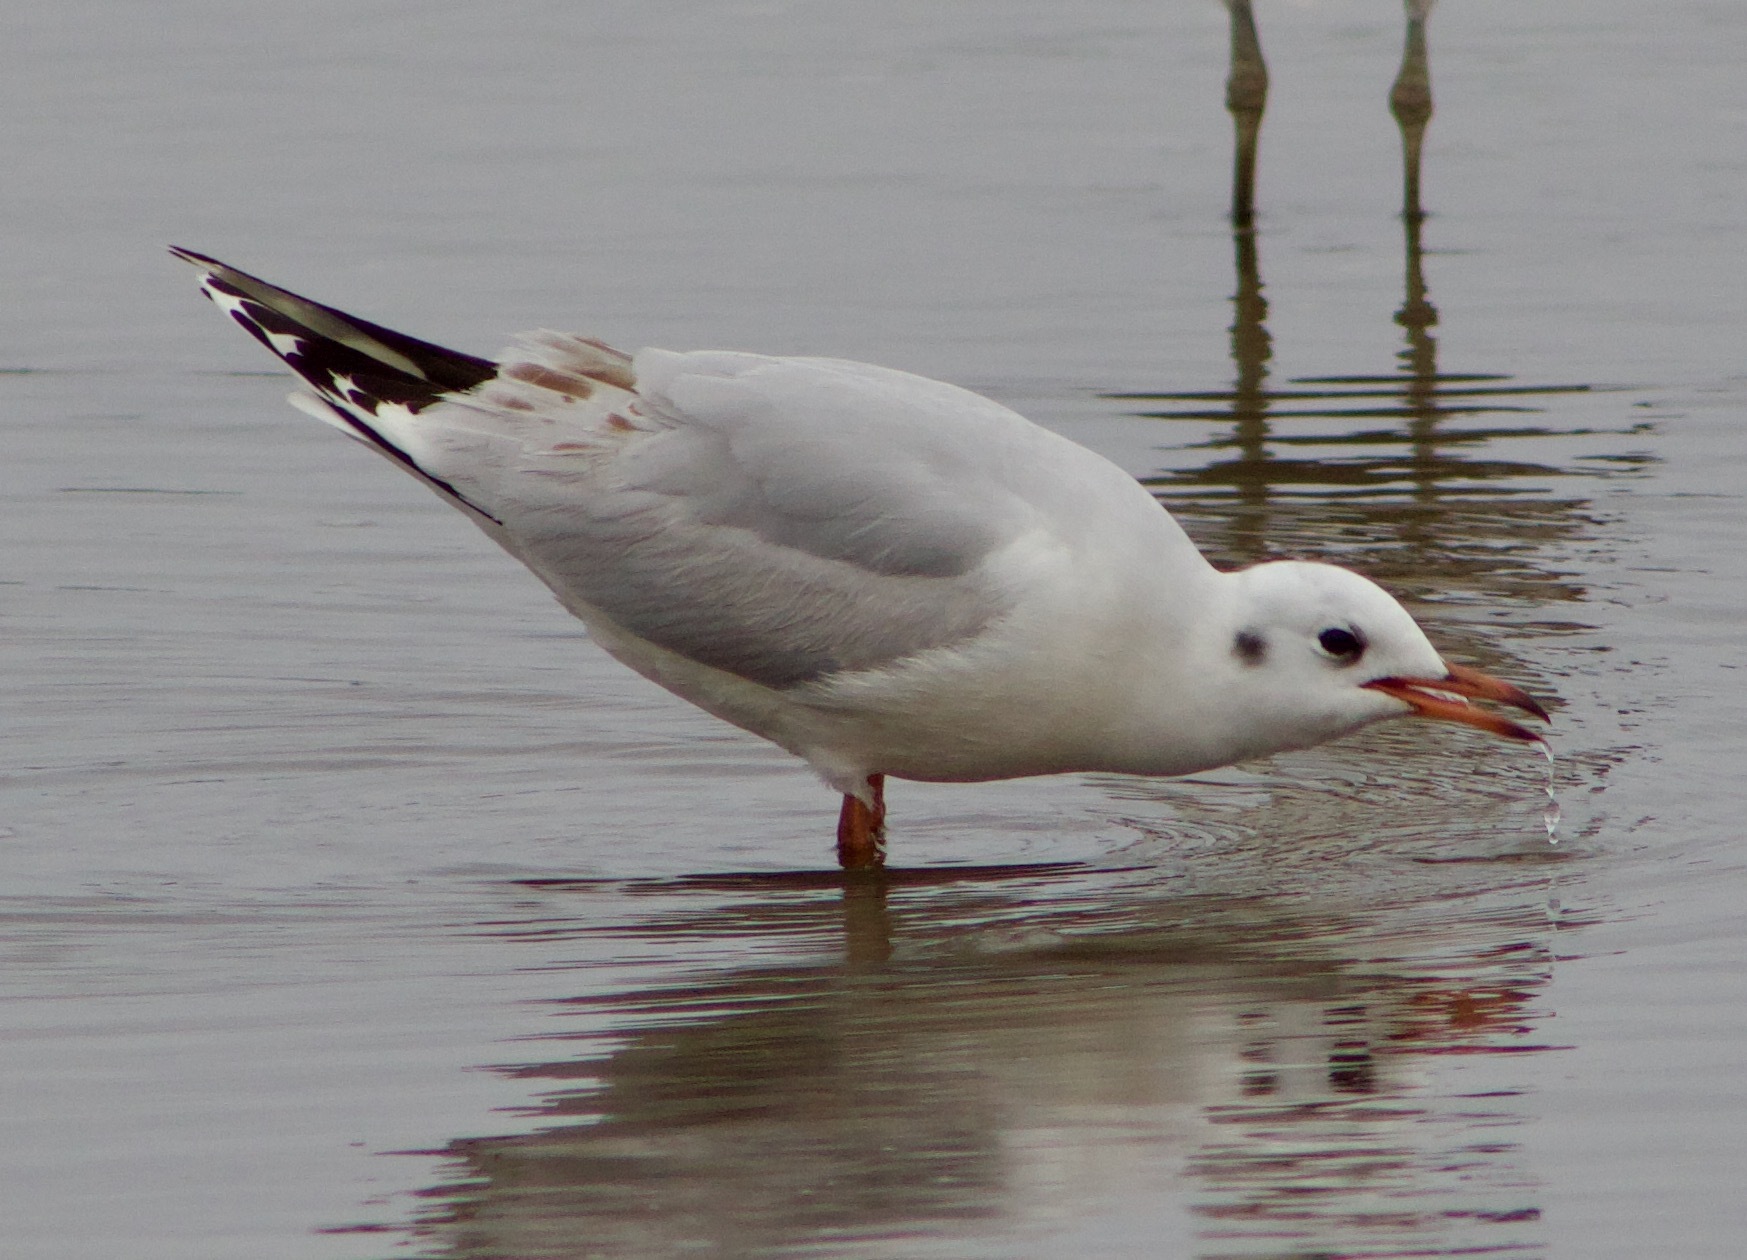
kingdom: Animalia
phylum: Chordata
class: Aves
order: Charadriiformes
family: Laridae
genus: Chroicocephalus
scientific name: Chroicocephalus maculipennis
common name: Brown-hooded gull
